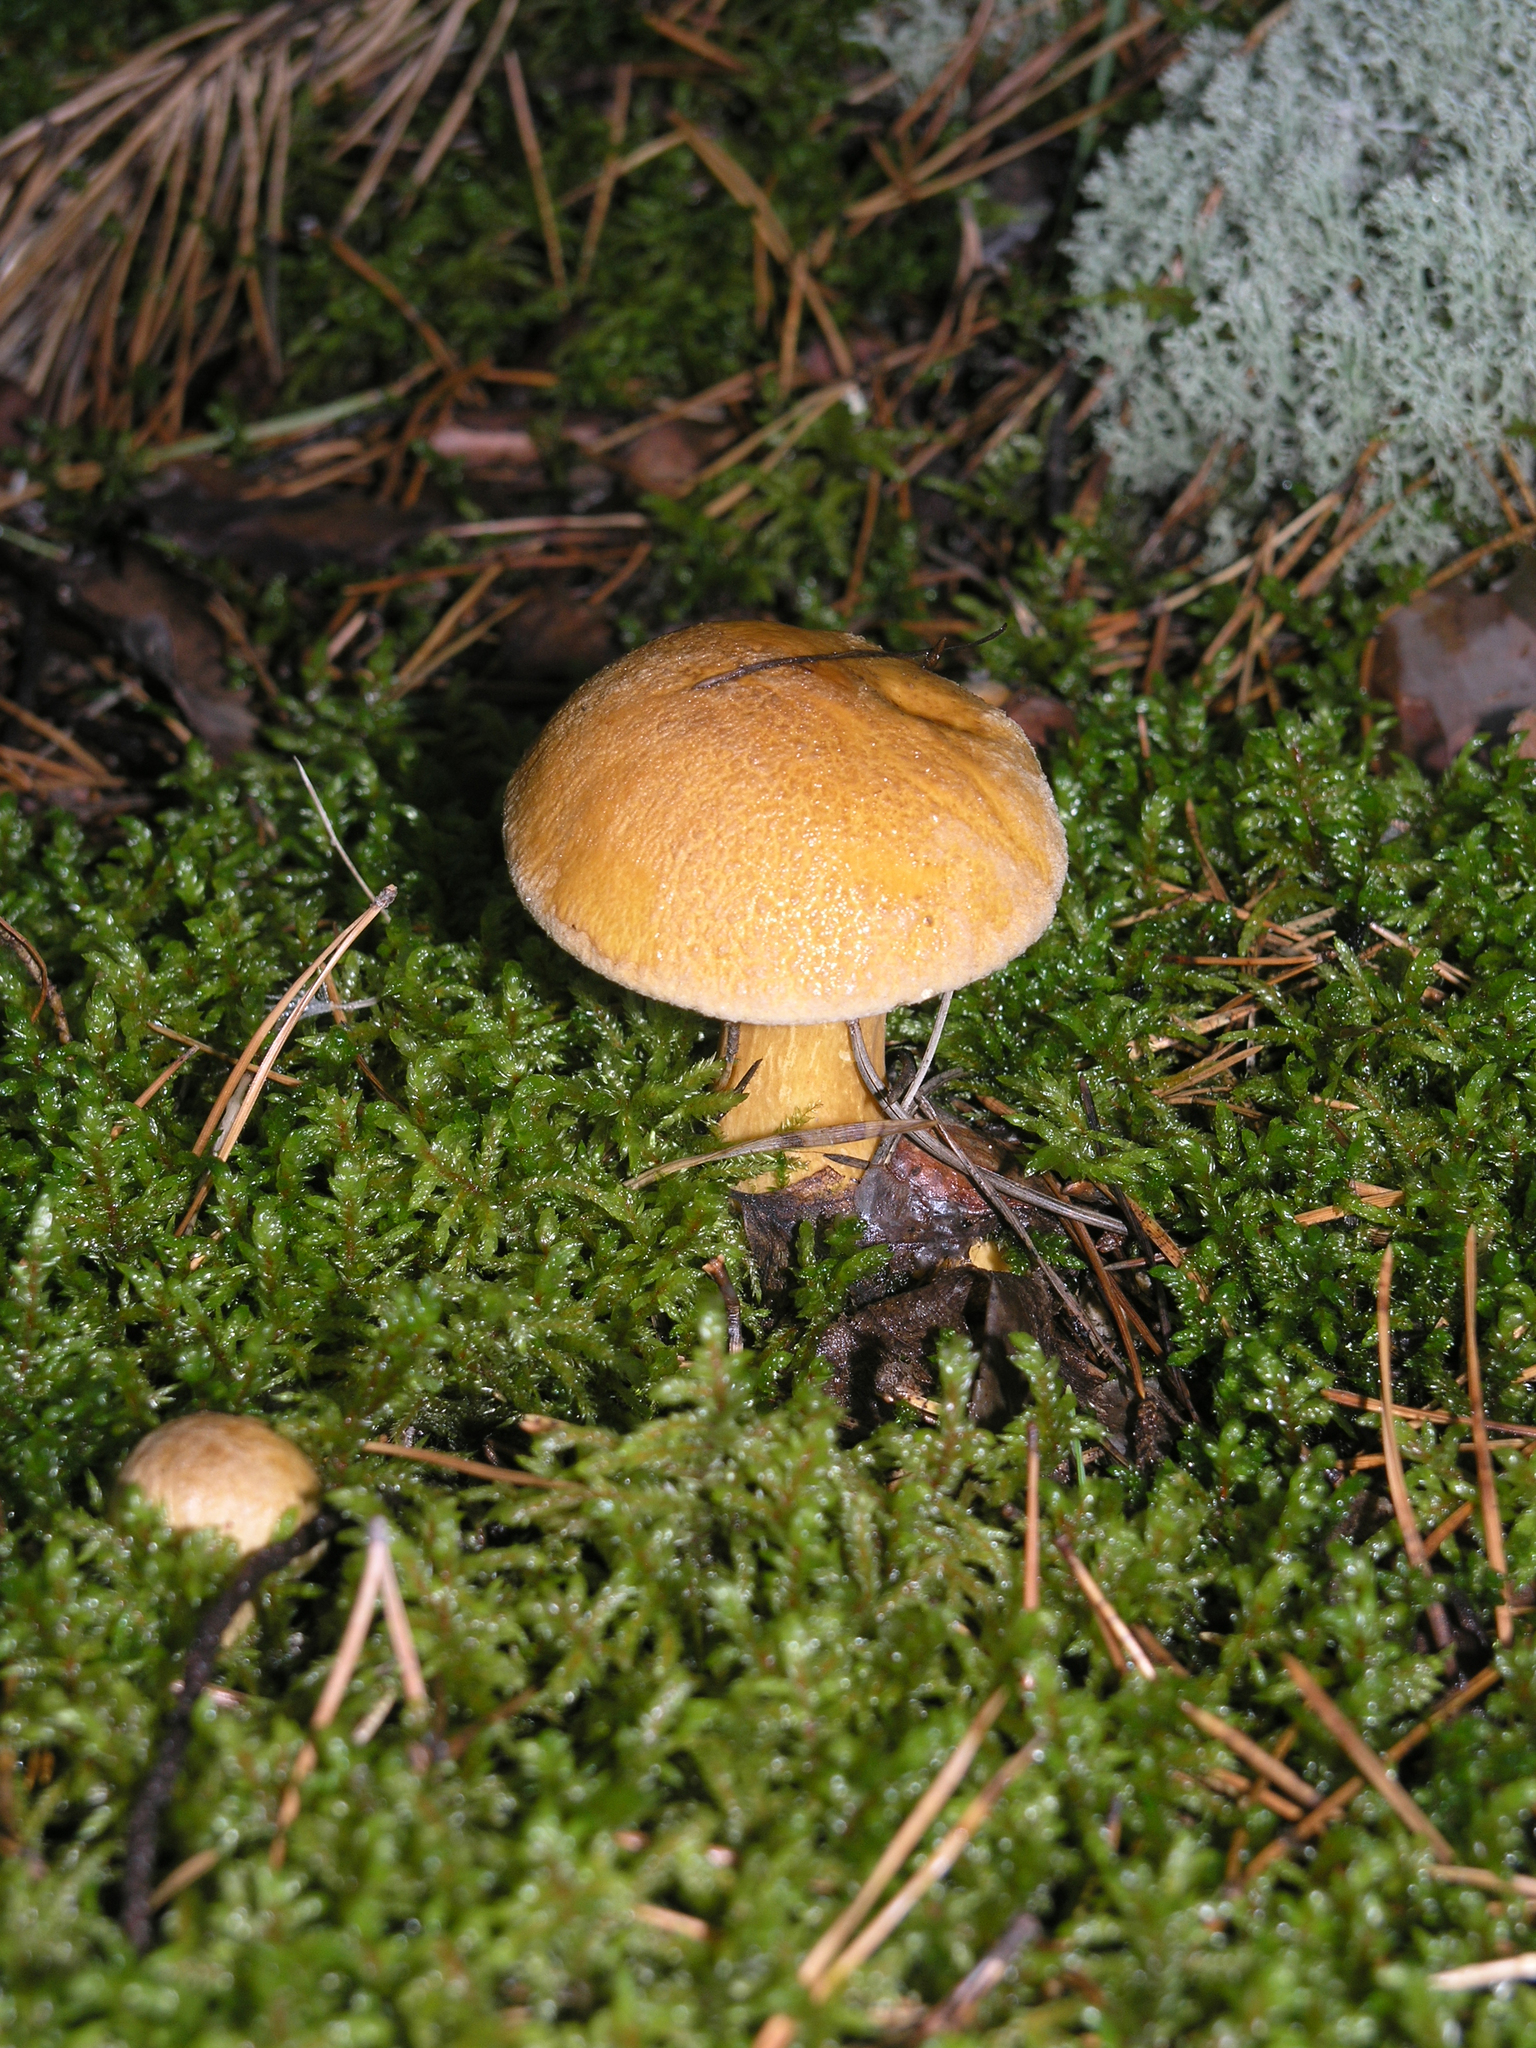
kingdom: Fungi
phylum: Basidiomycota
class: Agaricomycetes
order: Boletales
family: Suillaceae
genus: Suillus
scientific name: Suillus variegatus
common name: Velvet bolete
